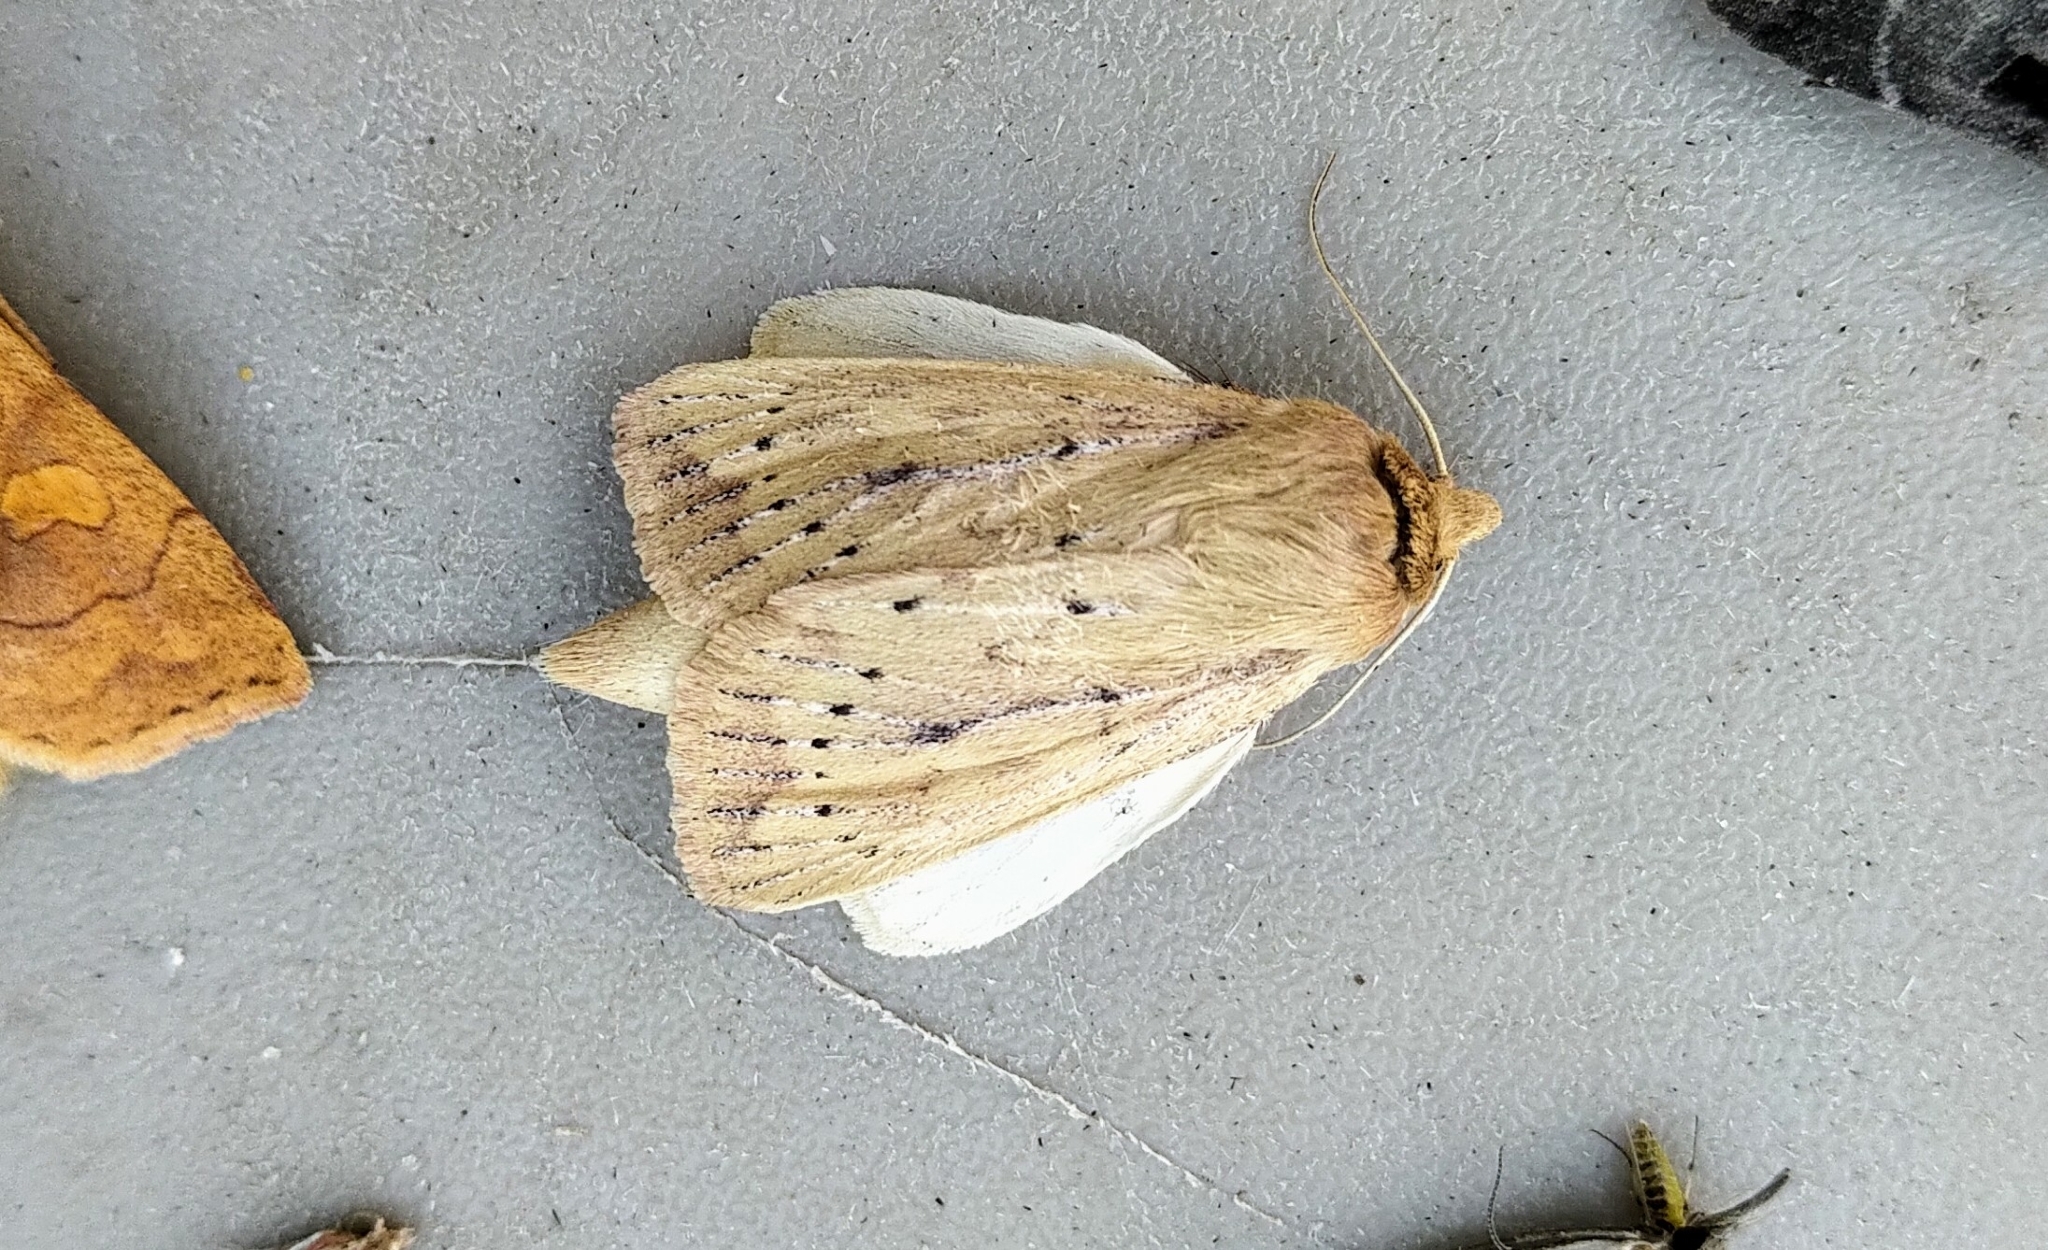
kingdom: Animalia
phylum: Arthropoda
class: Insecta
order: Lepidoptera
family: Noctuidae
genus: Globia
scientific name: Globia subflava
